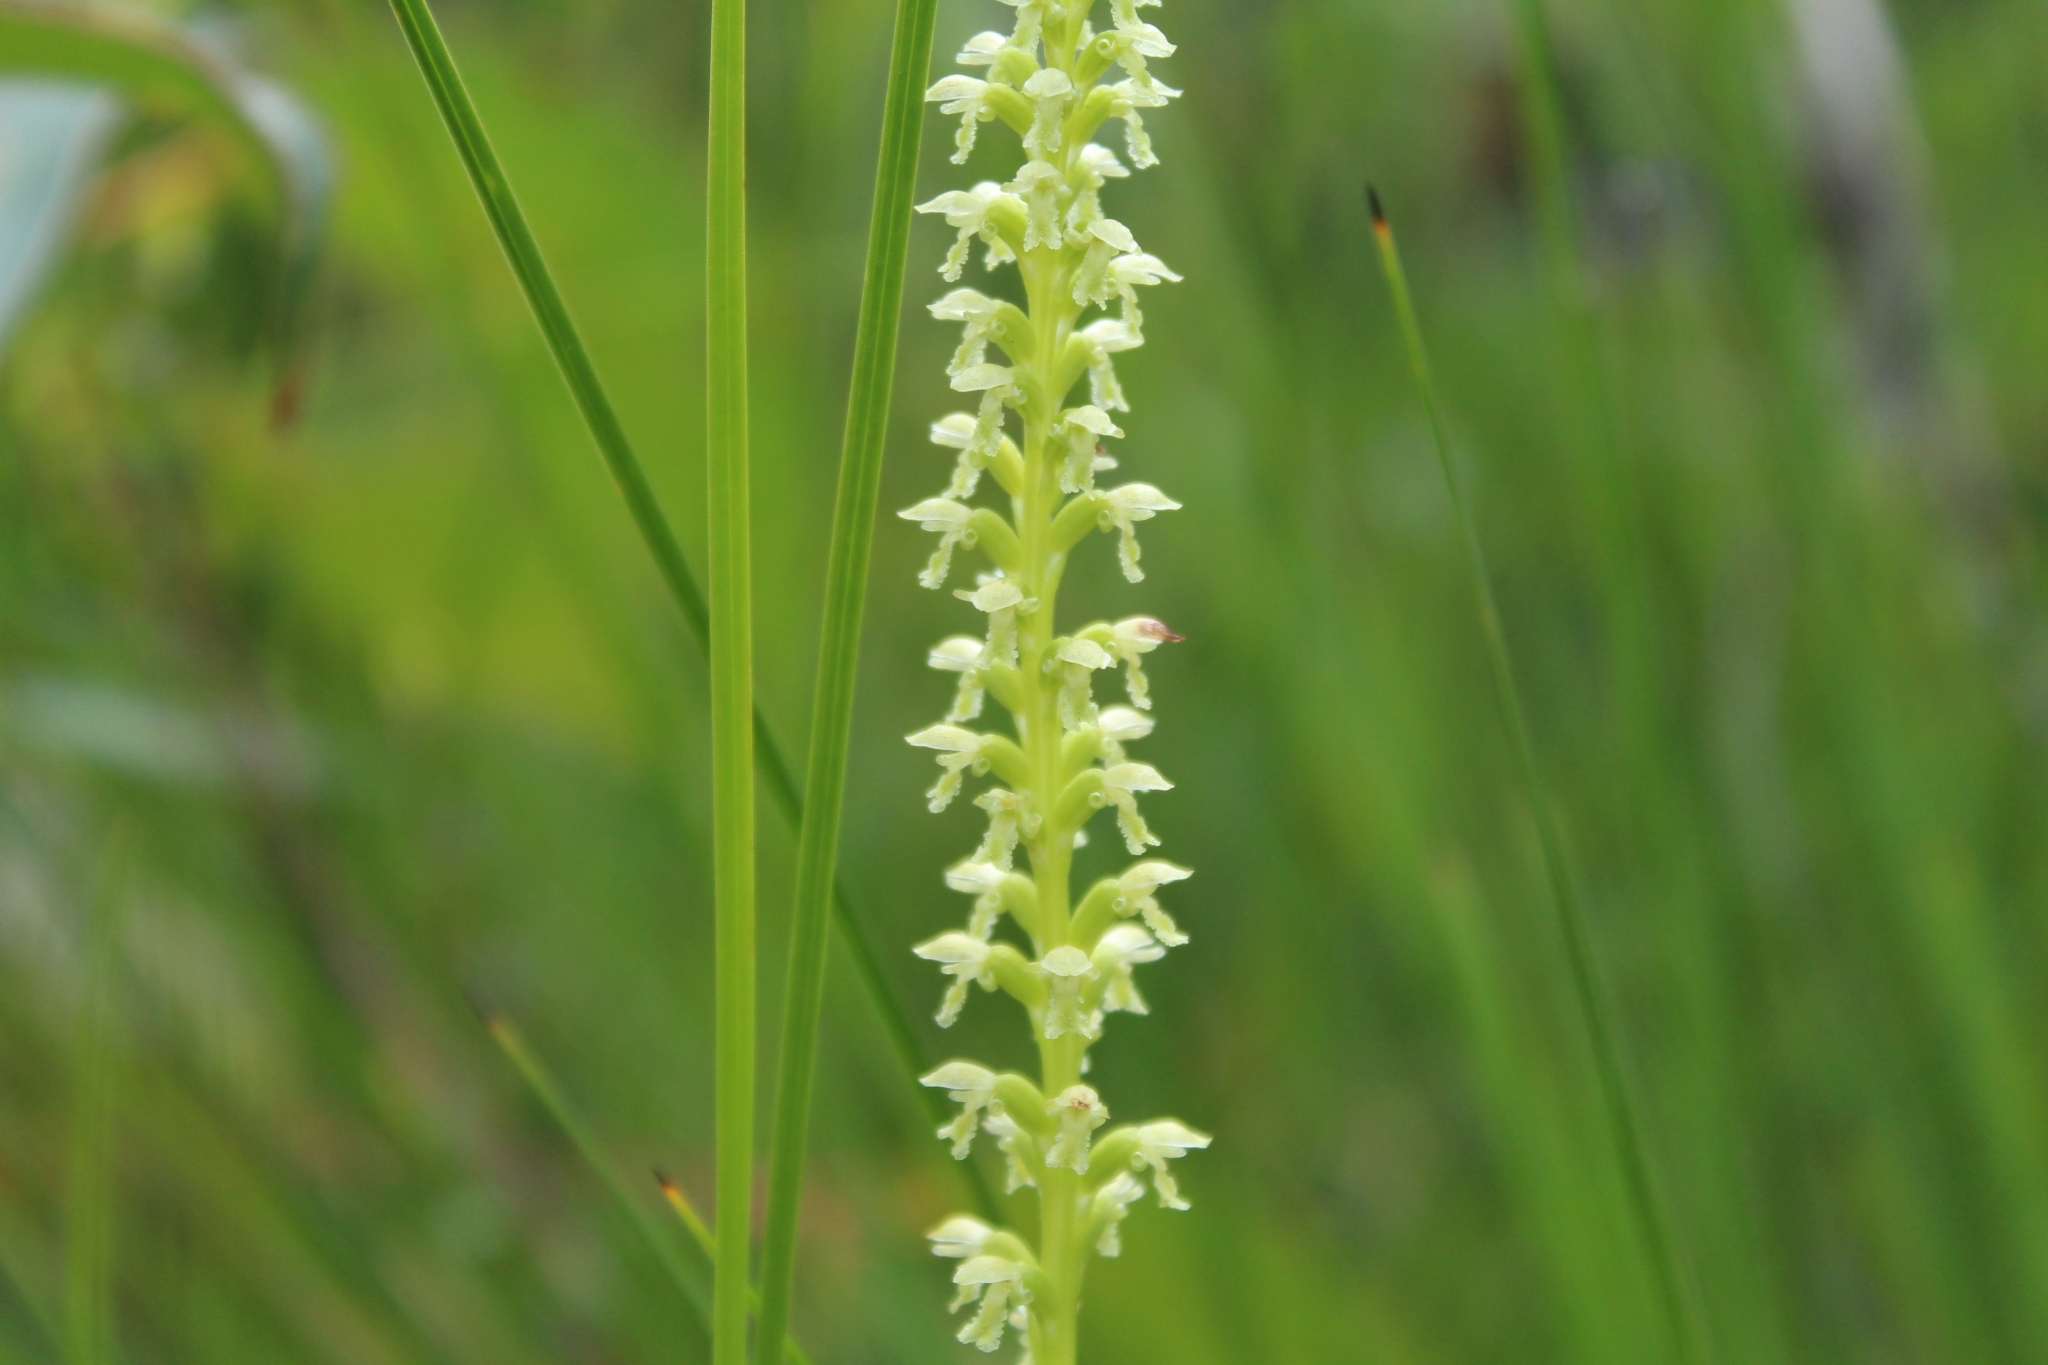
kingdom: Plantae
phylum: Tracheophyta
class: Liliopsida
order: Asparagales
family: Orchidaceae
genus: Microtis
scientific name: Microtis alba
